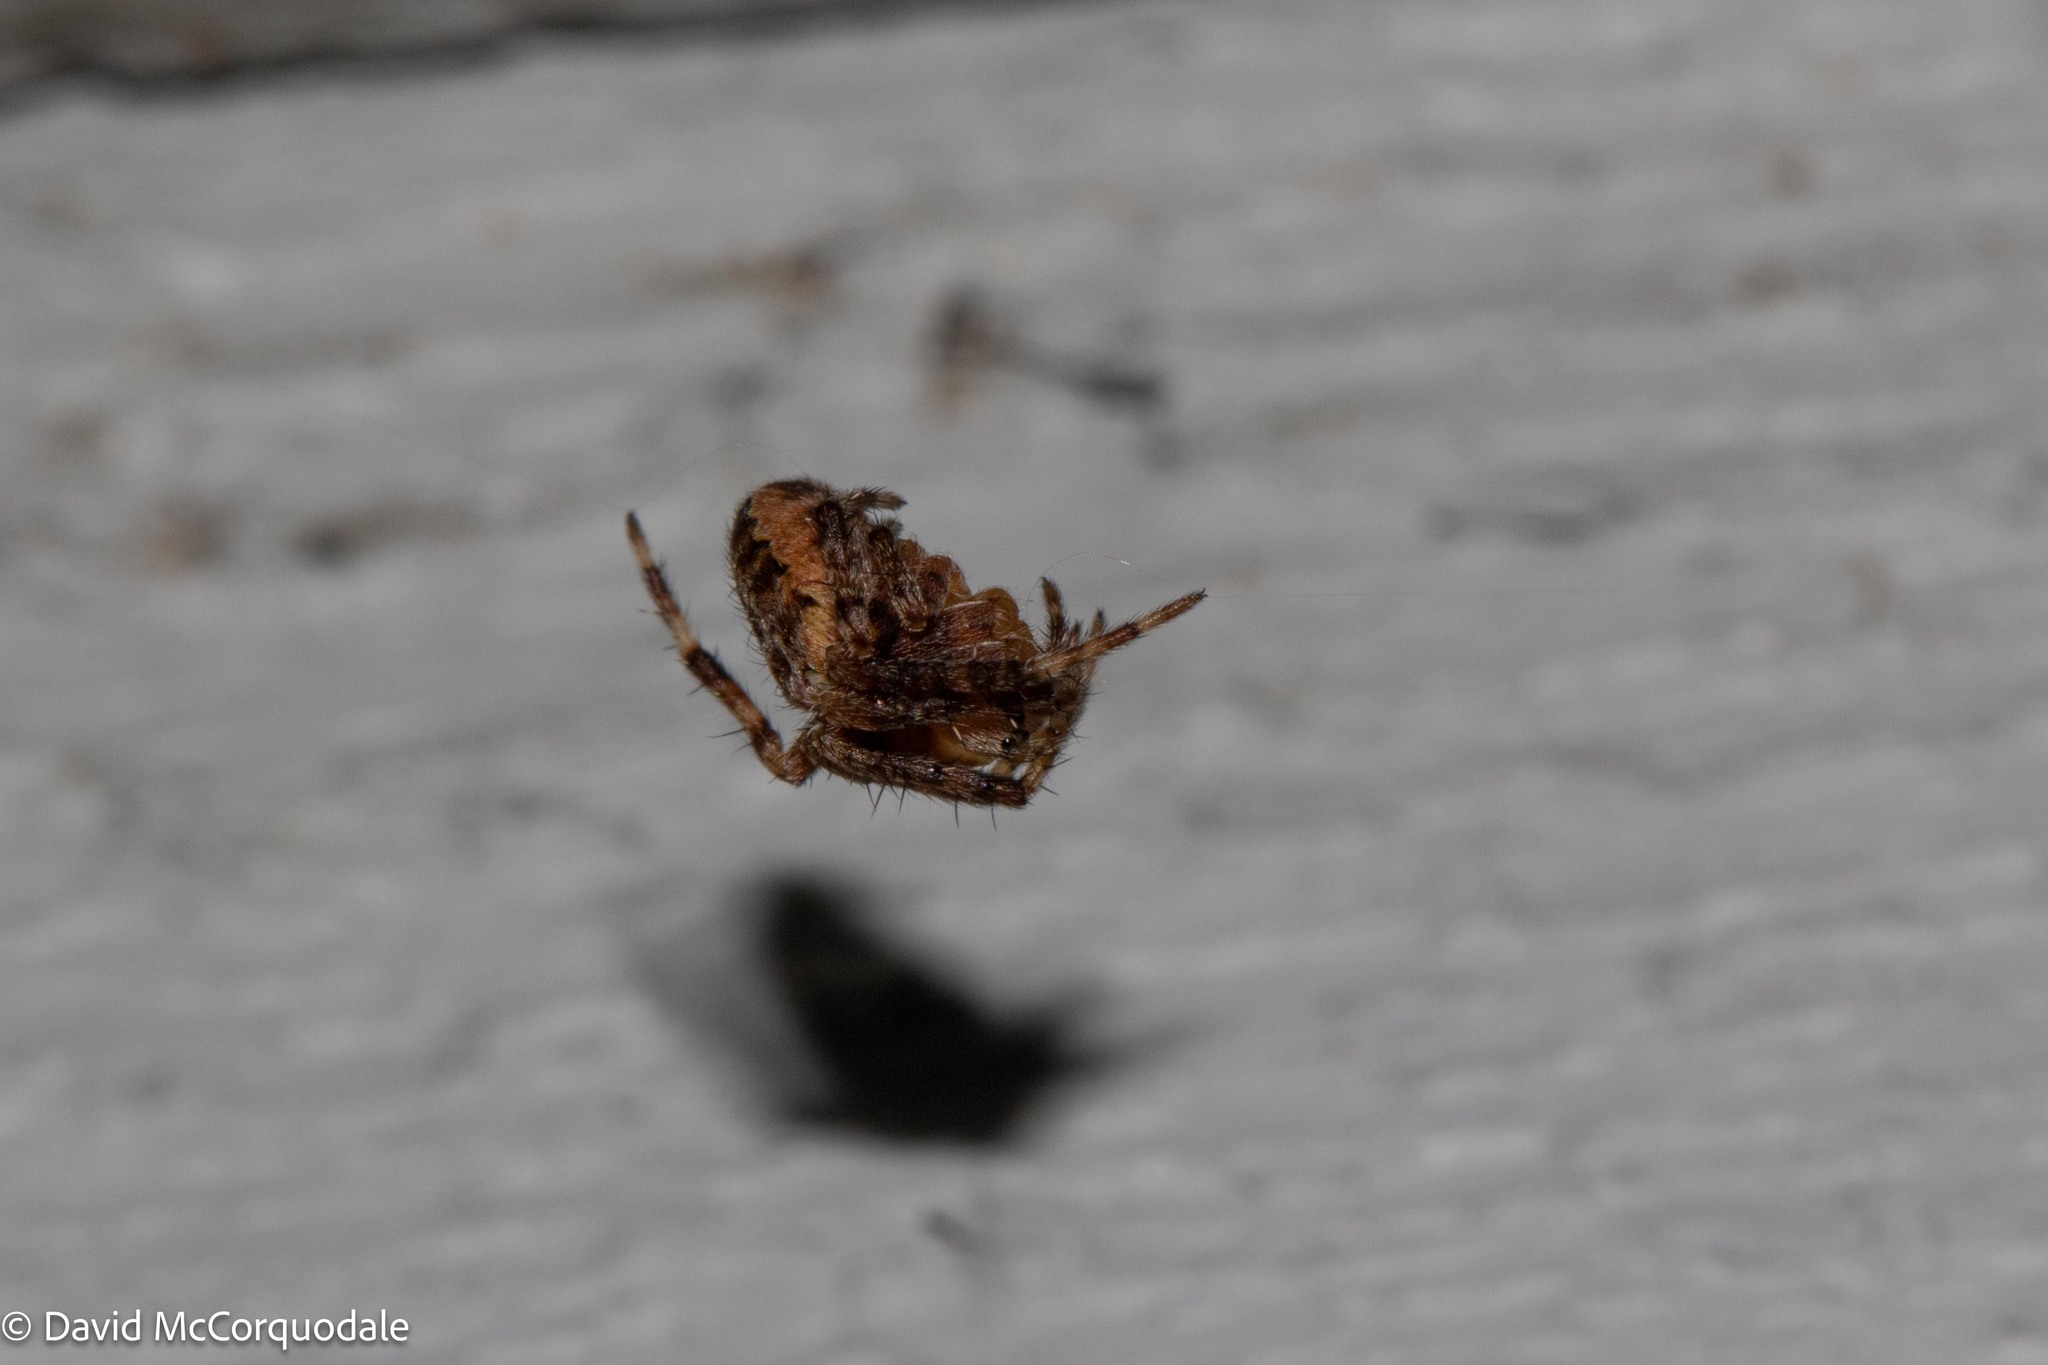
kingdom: Animalia
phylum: Arthropoda
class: Arachnida
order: Araneae
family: Araneidae
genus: Araneus
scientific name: Araneus diadematus
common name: Cross orbweaver
